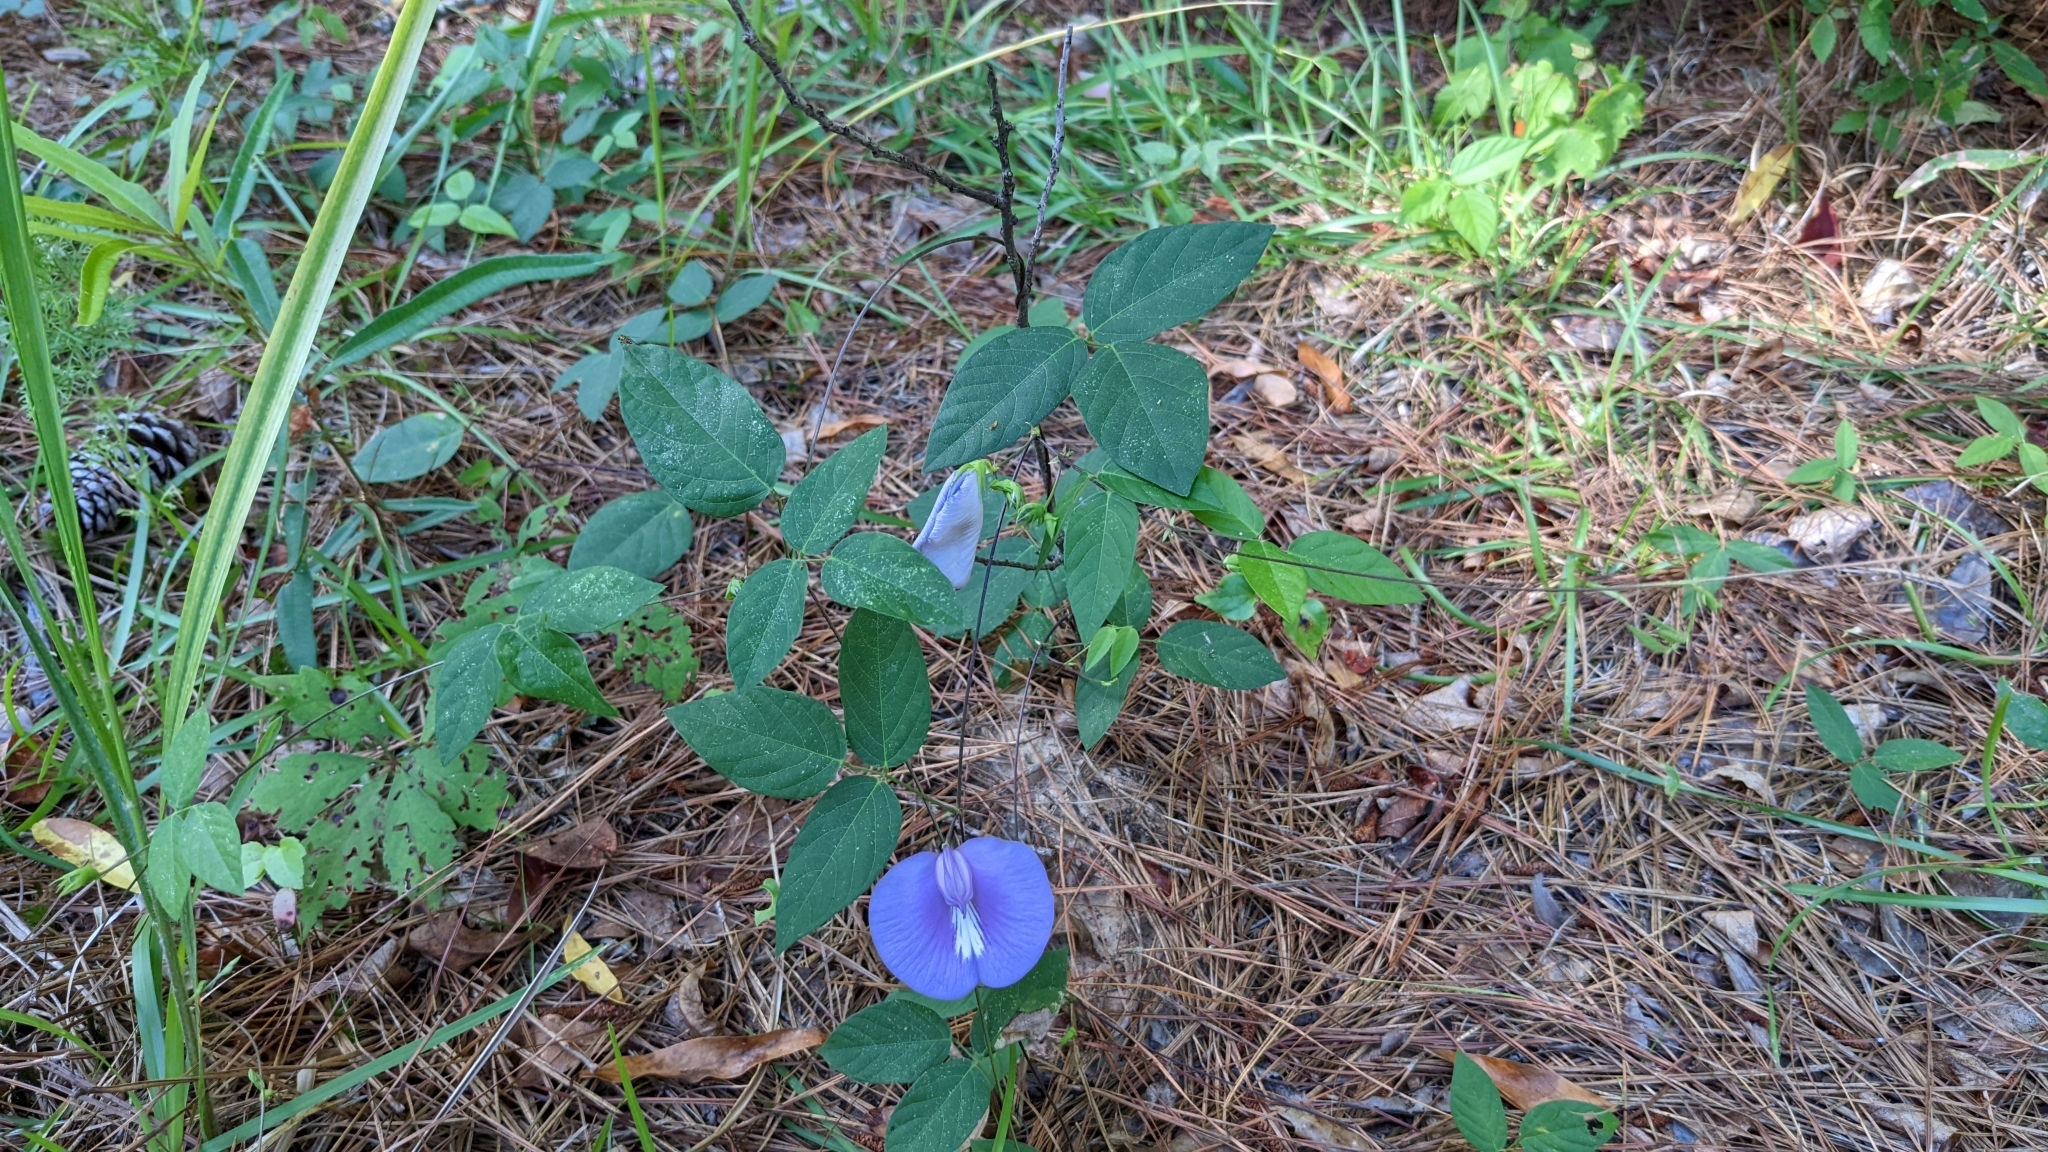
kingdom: Plantae
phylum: Tracheophyta
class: Magnoliopsida
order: Fabales
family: Fabaceae
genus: Centrosema
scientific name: Centrosema virginianum
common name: Butterfly-pea
